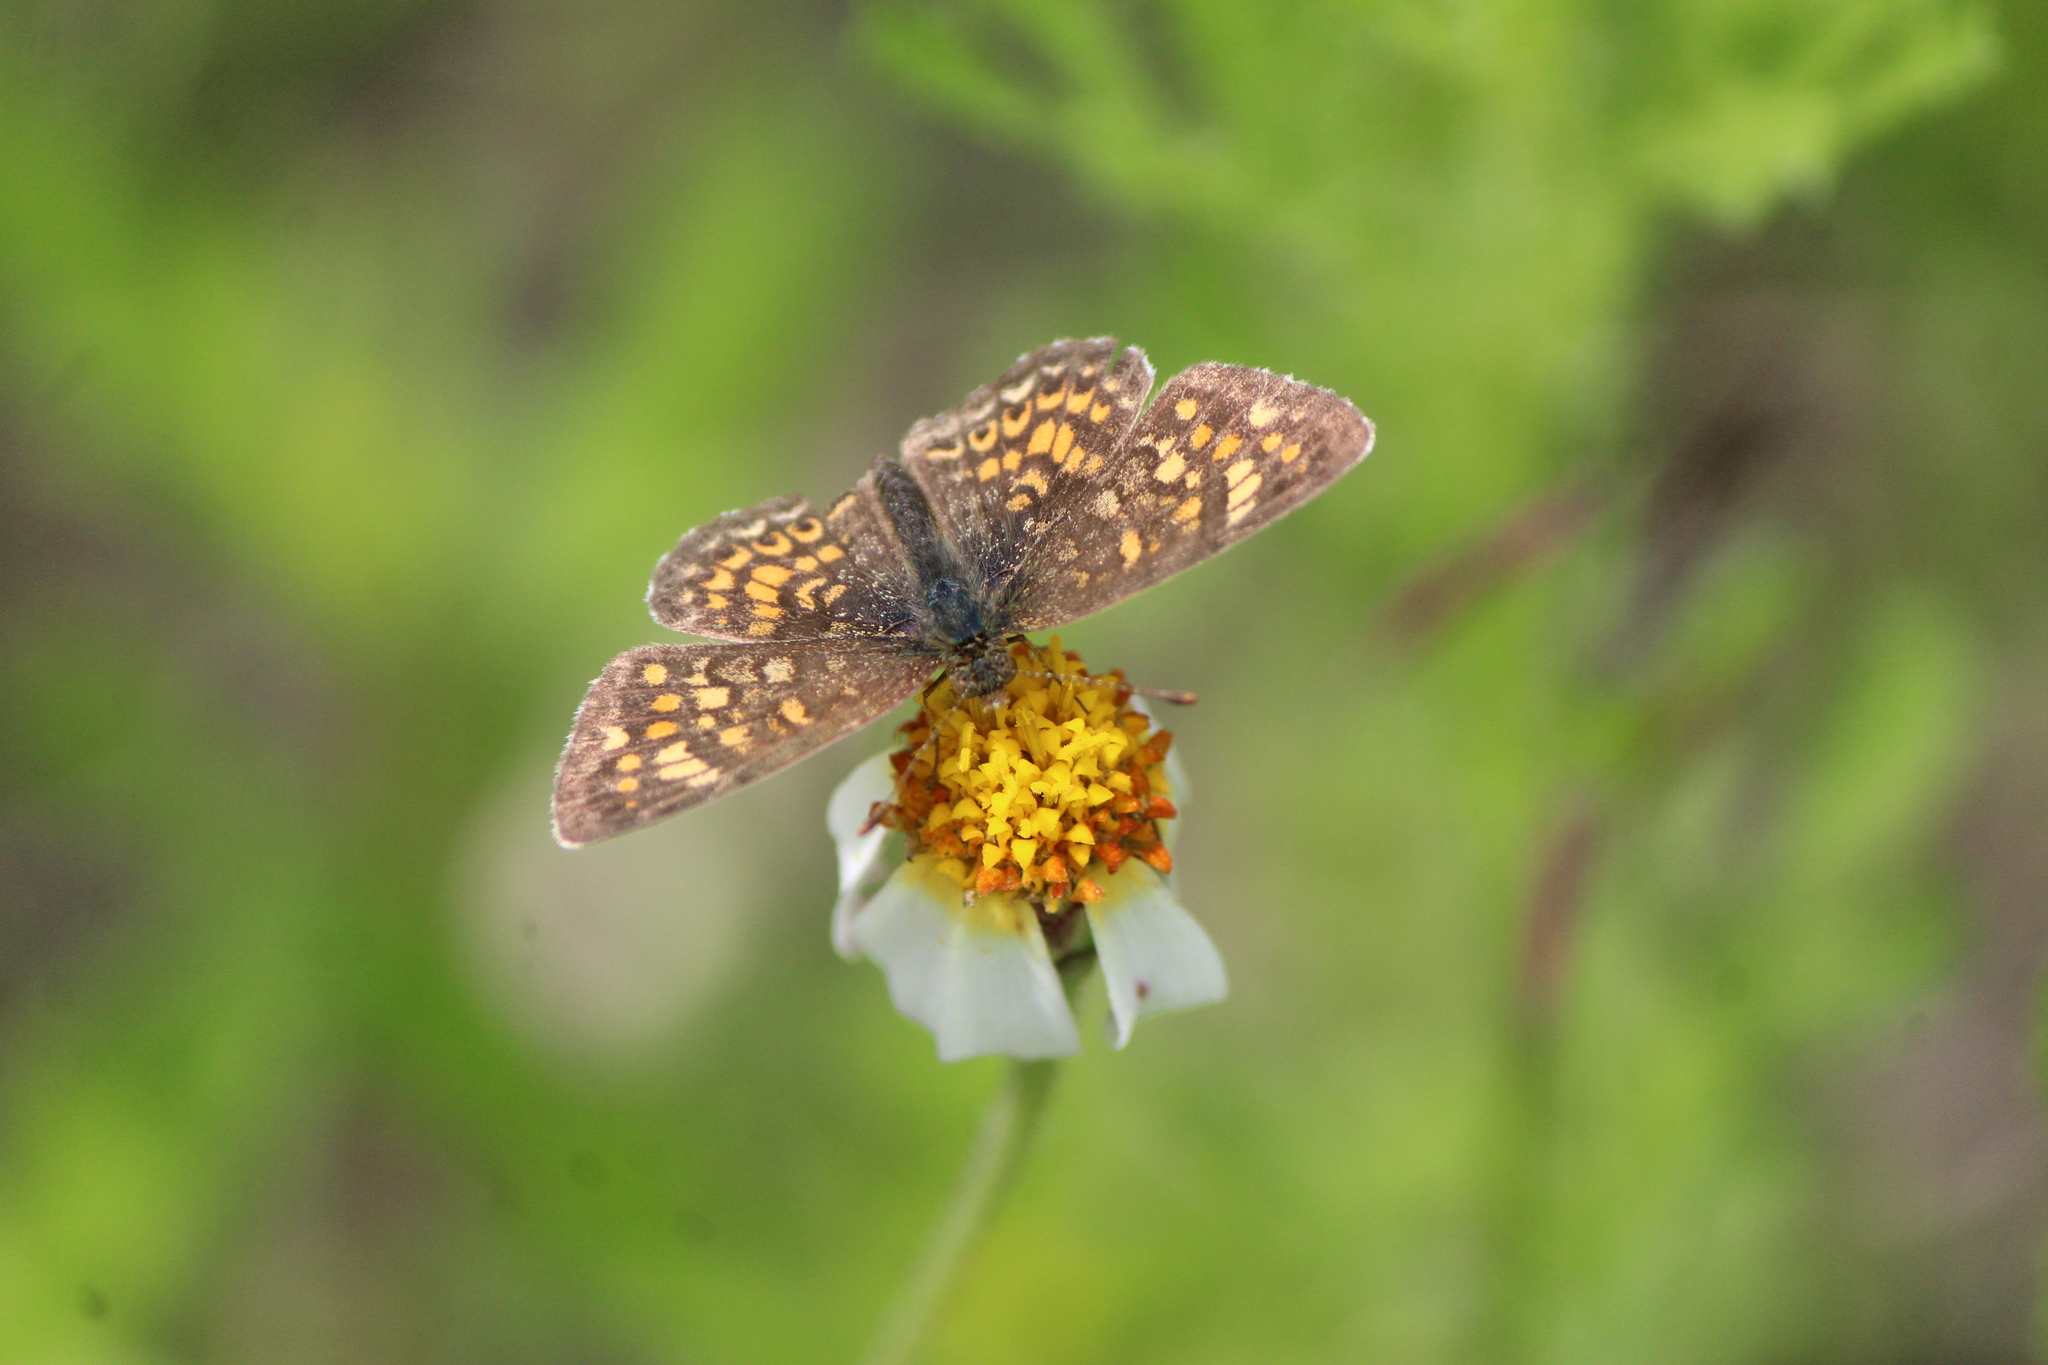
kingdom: Animalia
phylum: Arthropoda
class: Insecta
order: Lepidoptera
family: Nymphalidae
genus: Phyciodes
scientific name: Phyciodes vesta
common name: Vesta crescent
